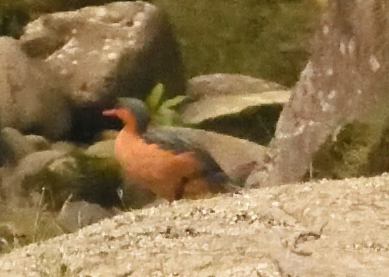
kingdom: Animalia
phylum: Chordata
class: Aves
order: Anseriformes
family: Anatidae
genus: Merganetta
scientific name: Merganetta armata
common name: Torrent duck
